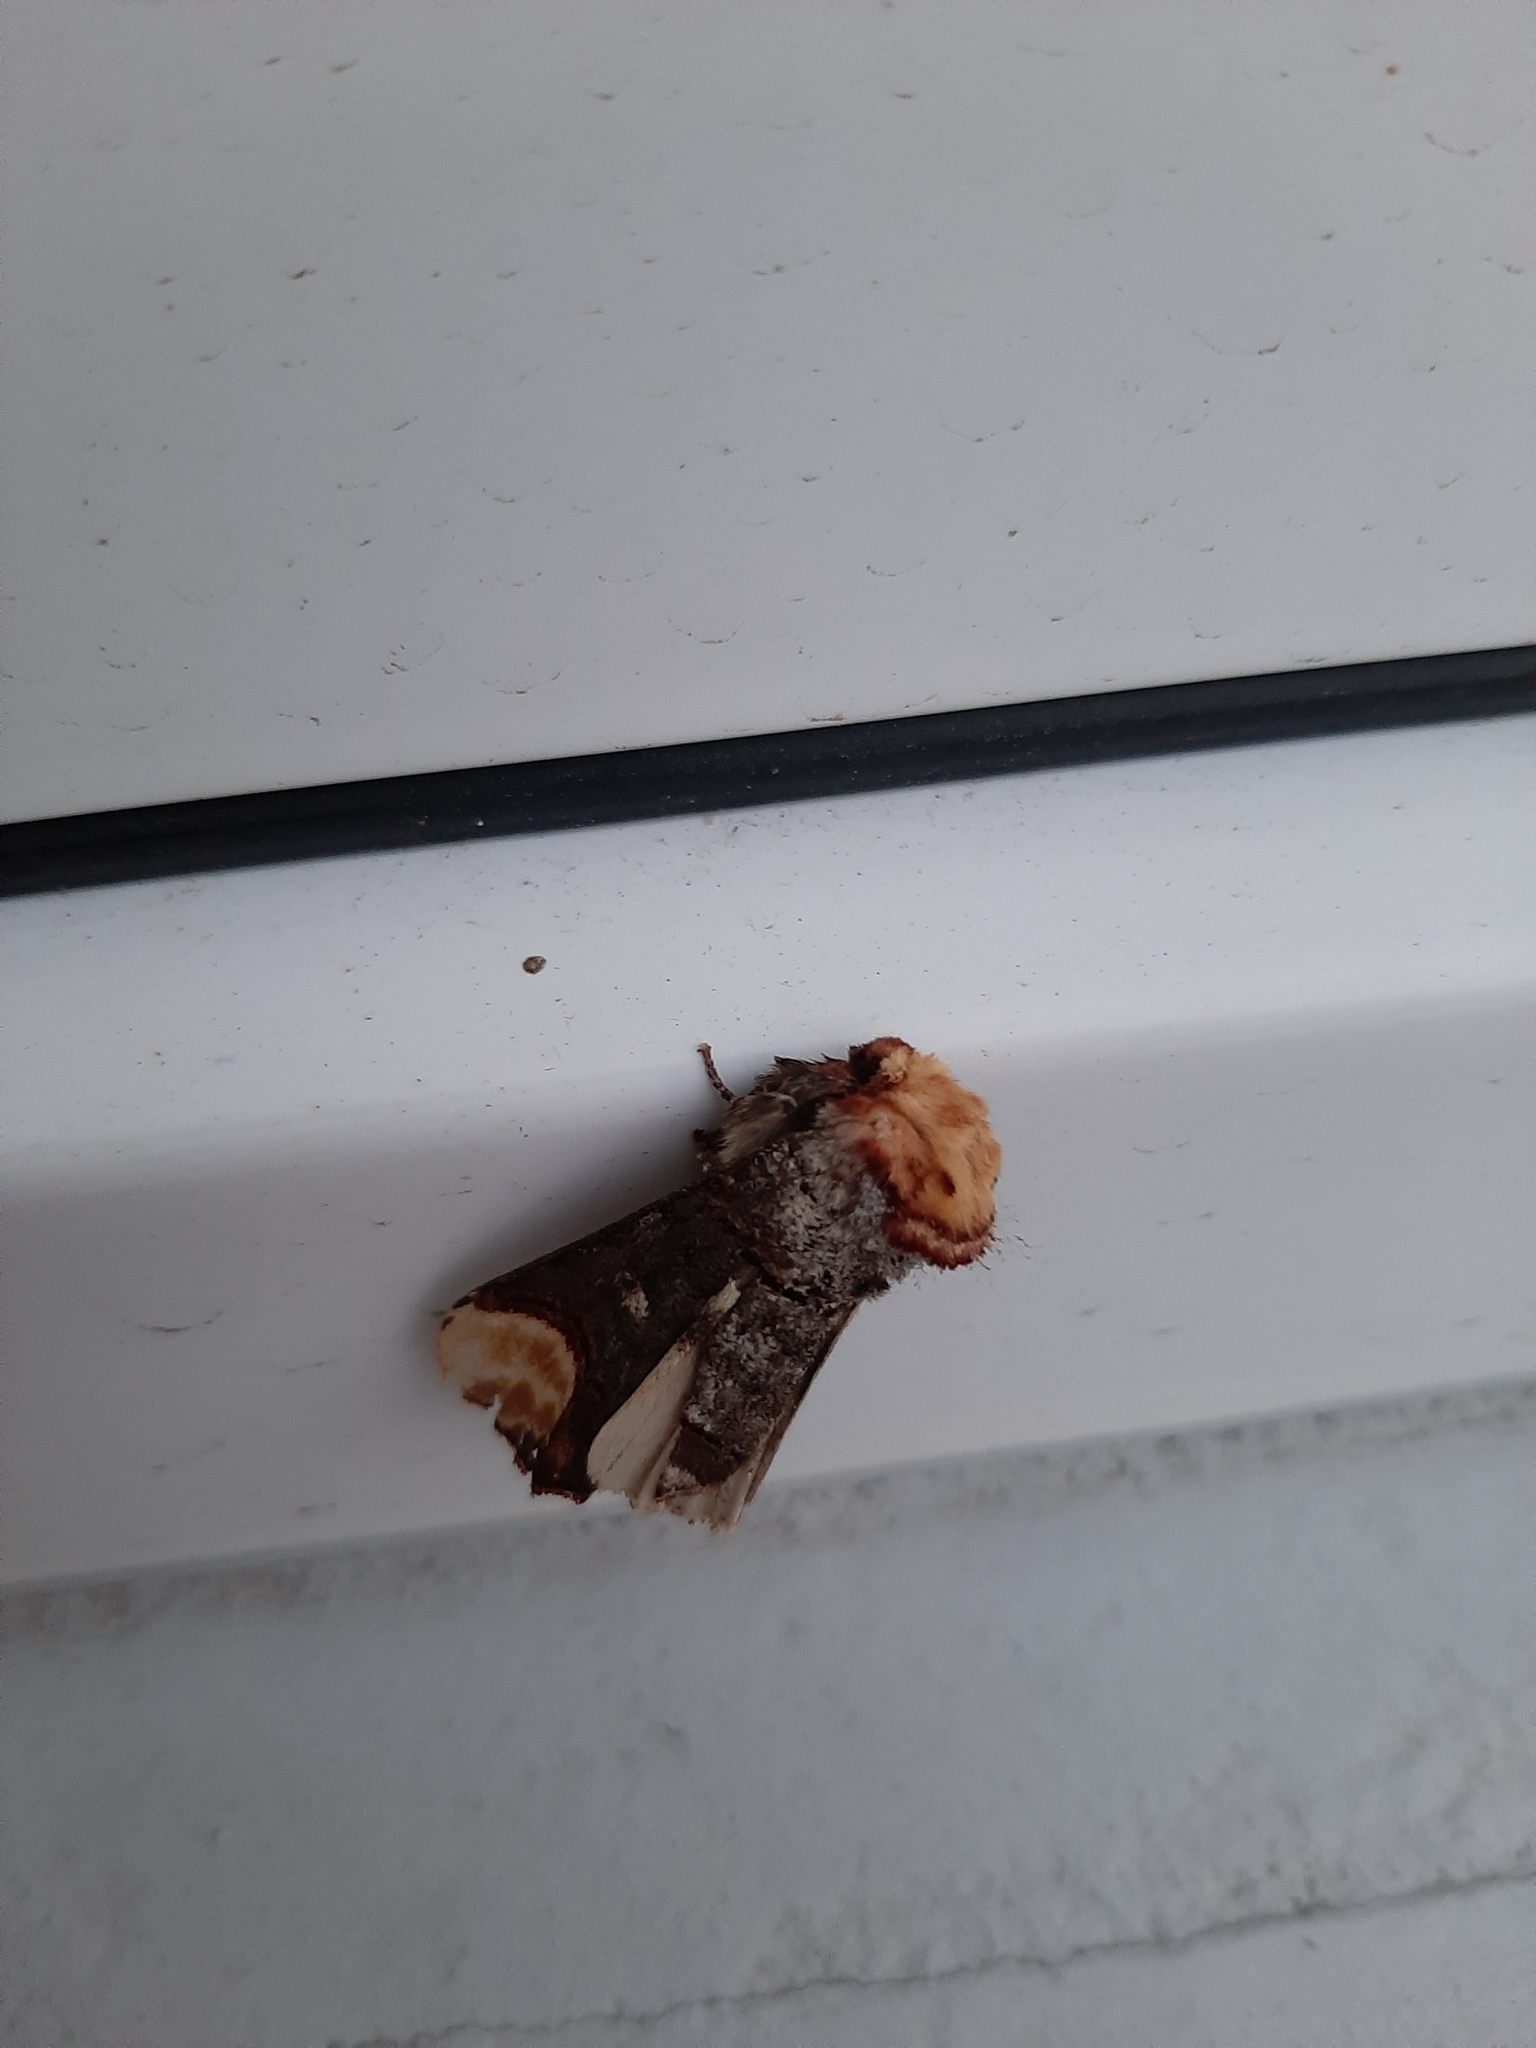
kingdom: Animalia
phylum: Arthropoda
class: Insecta
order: Lepidoptera
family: Notodontidae
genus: Phalera
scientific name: Phalera bucephala
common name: Buff-tip
